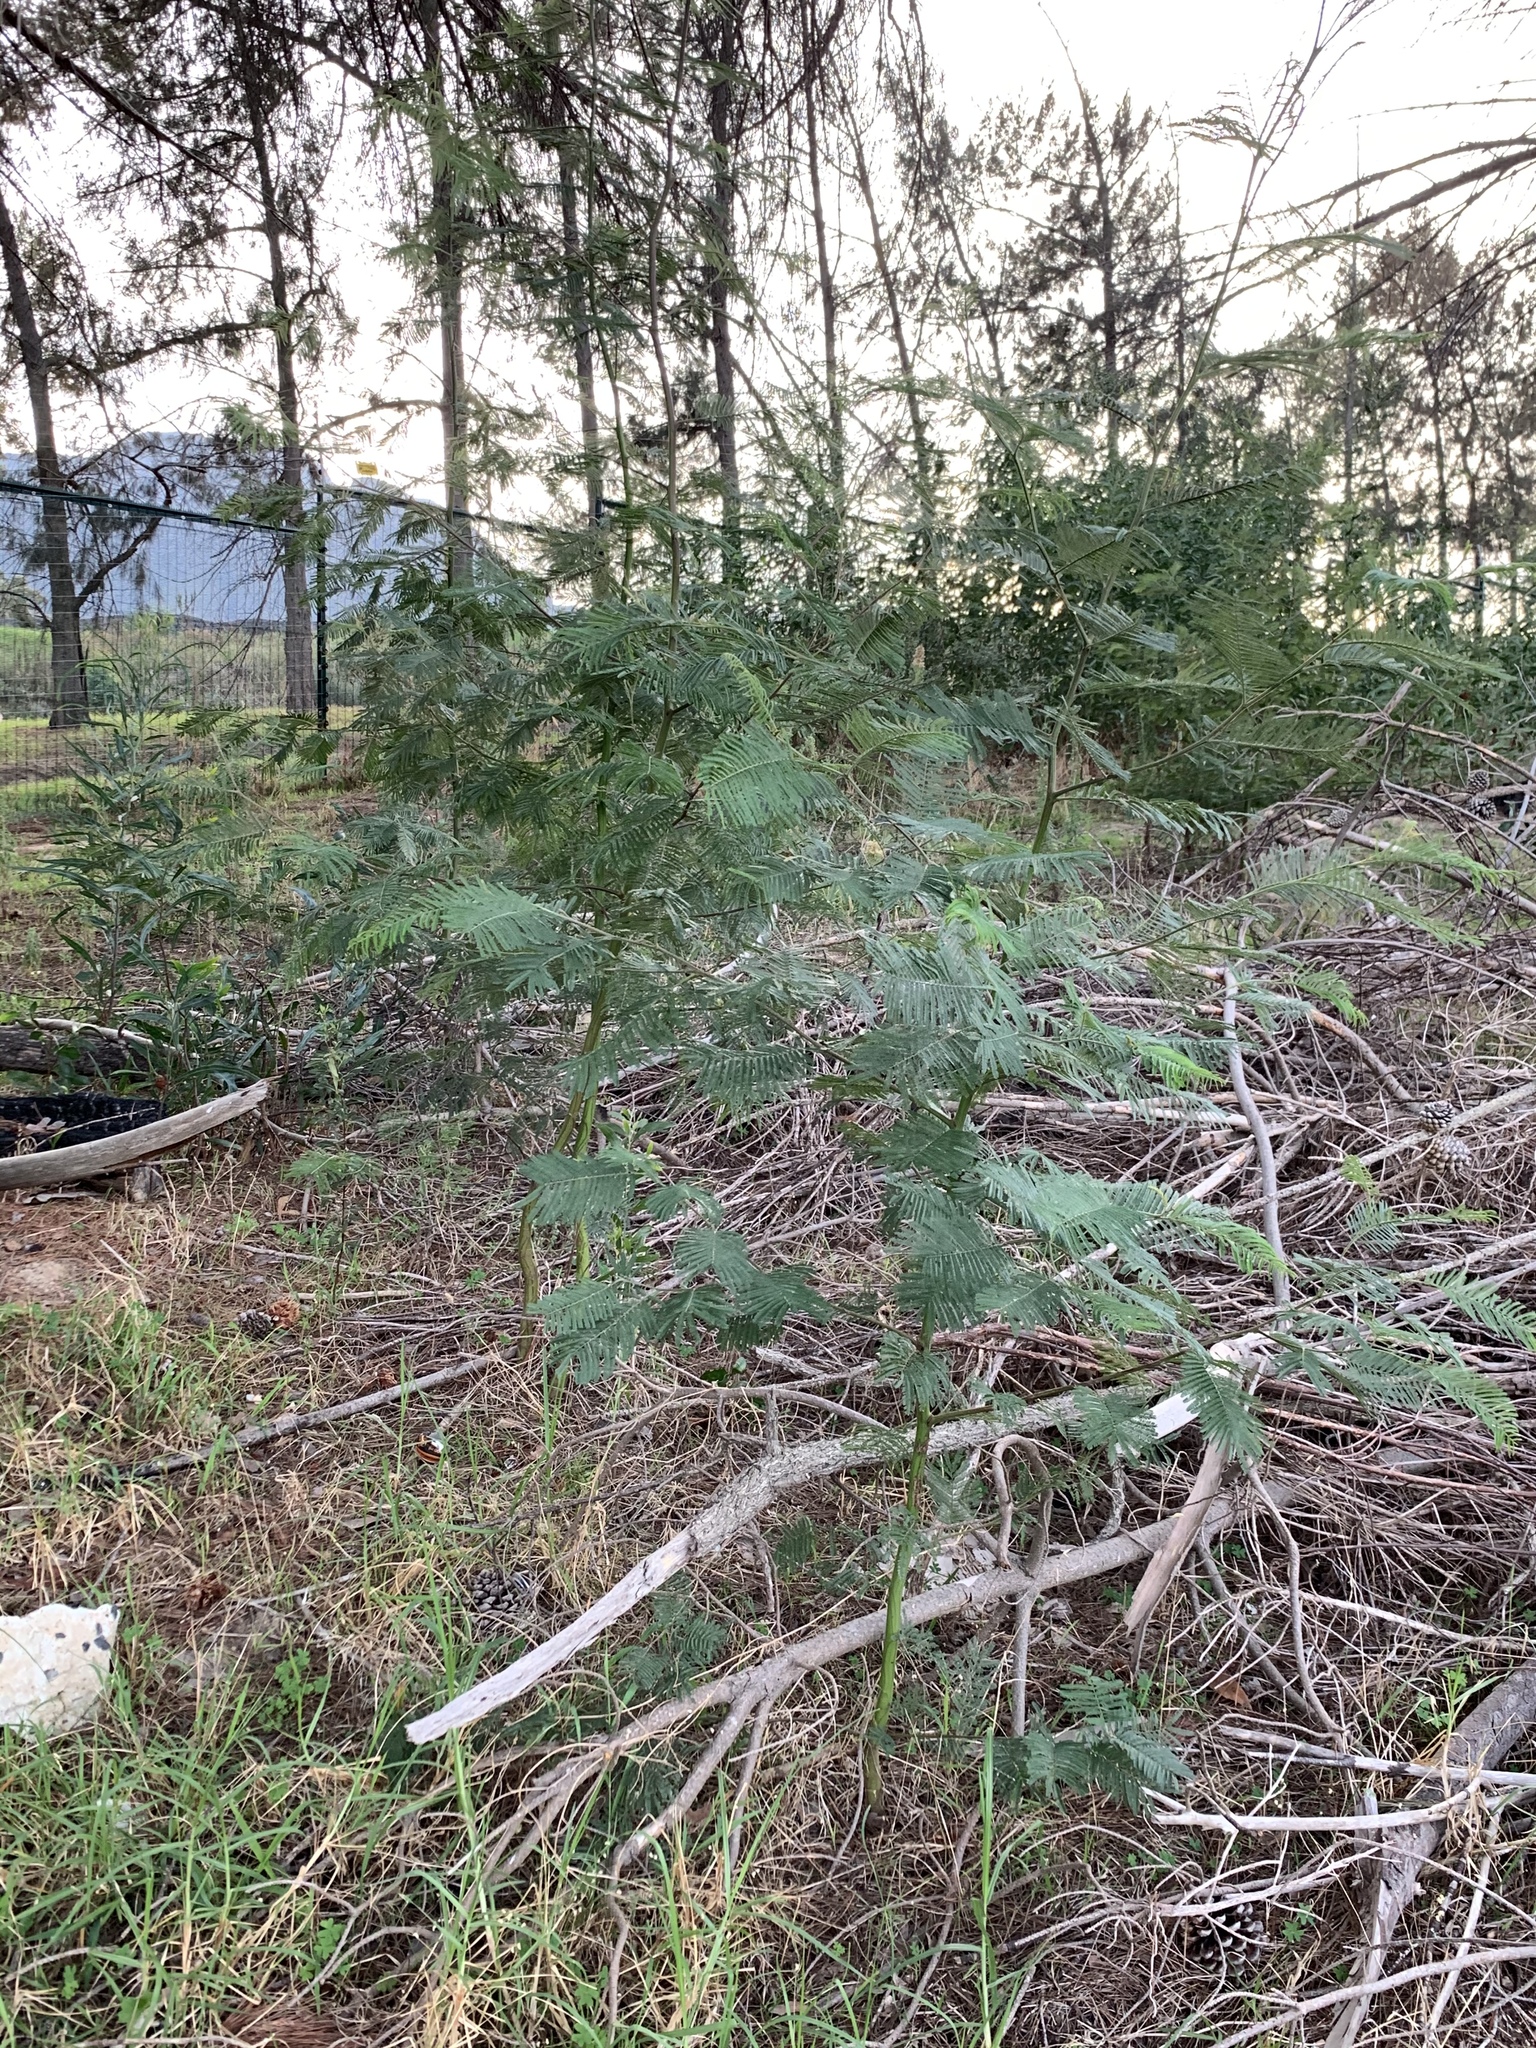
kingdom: Plantae
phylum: Tracheophyta
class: Magnoliopsida
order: Fabales
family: Fabaceae
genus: Acacia
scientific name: Acacia mearnsii
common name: Black wattle
